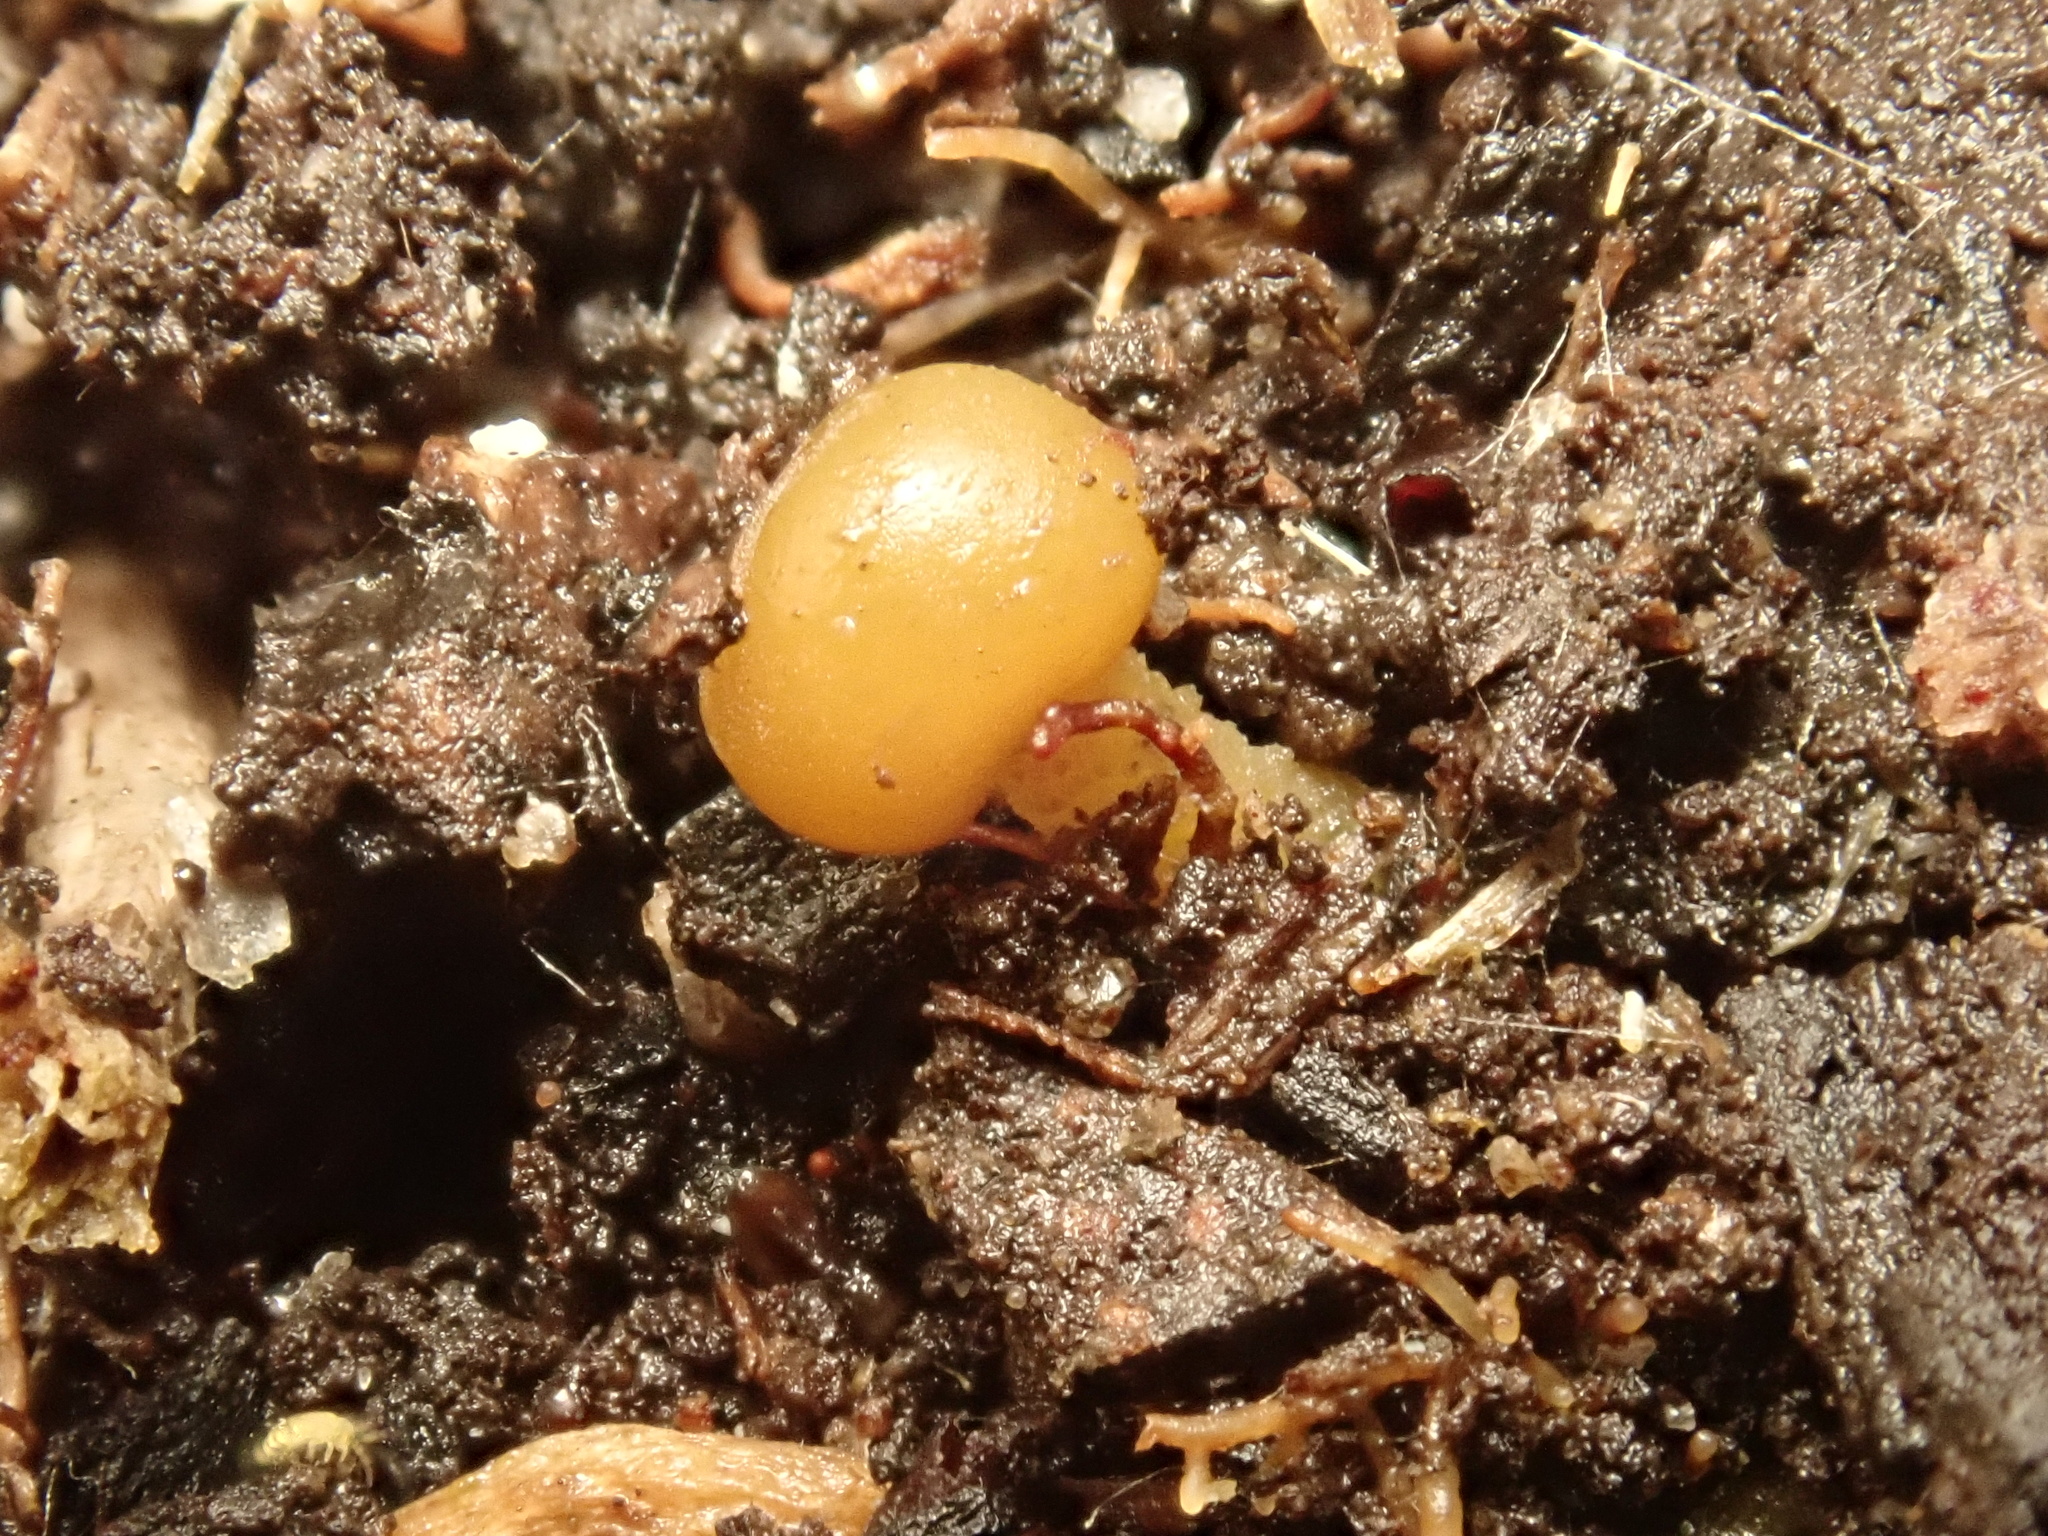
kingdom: Fungi
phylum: Ascomycota
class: Leotiomycetes
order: Leotiales
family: Leotiaceae
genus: Leotia
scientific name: Leotia lubrica
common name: Jellybaby
